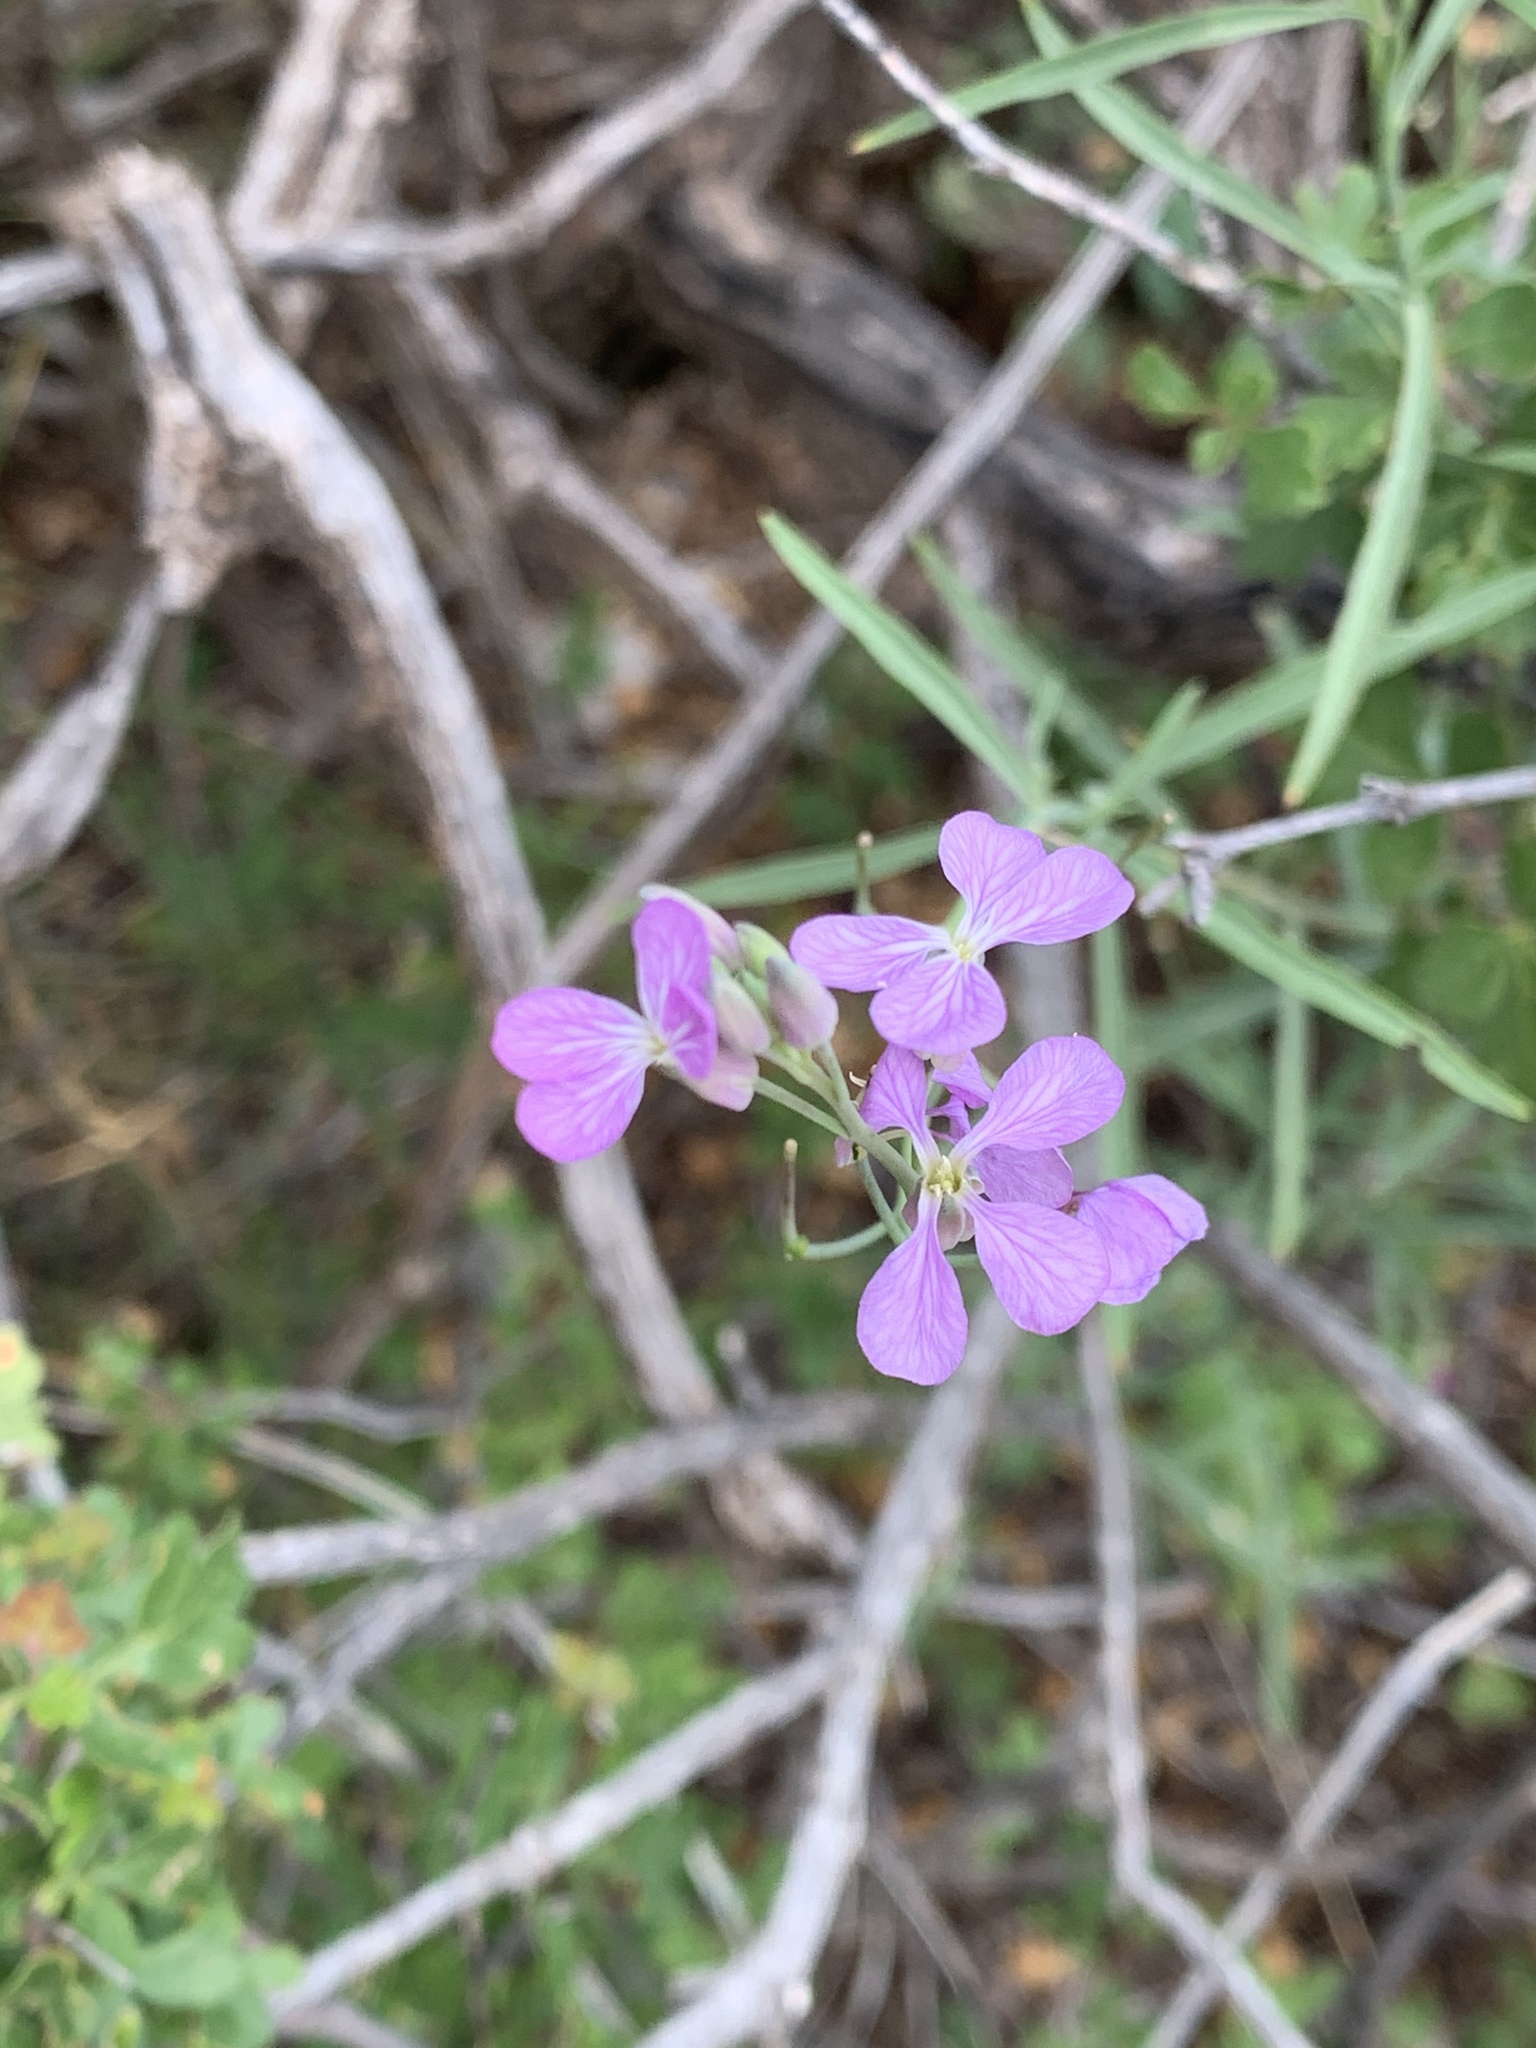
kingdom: Plantae
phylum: Tracheophyta
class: Magnoliopsida
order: Brassicales
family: Brassicaceae
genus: Hesperidanthus
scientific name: Hesperidanthus linearifolius
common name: Slim-leaf plains mustard
